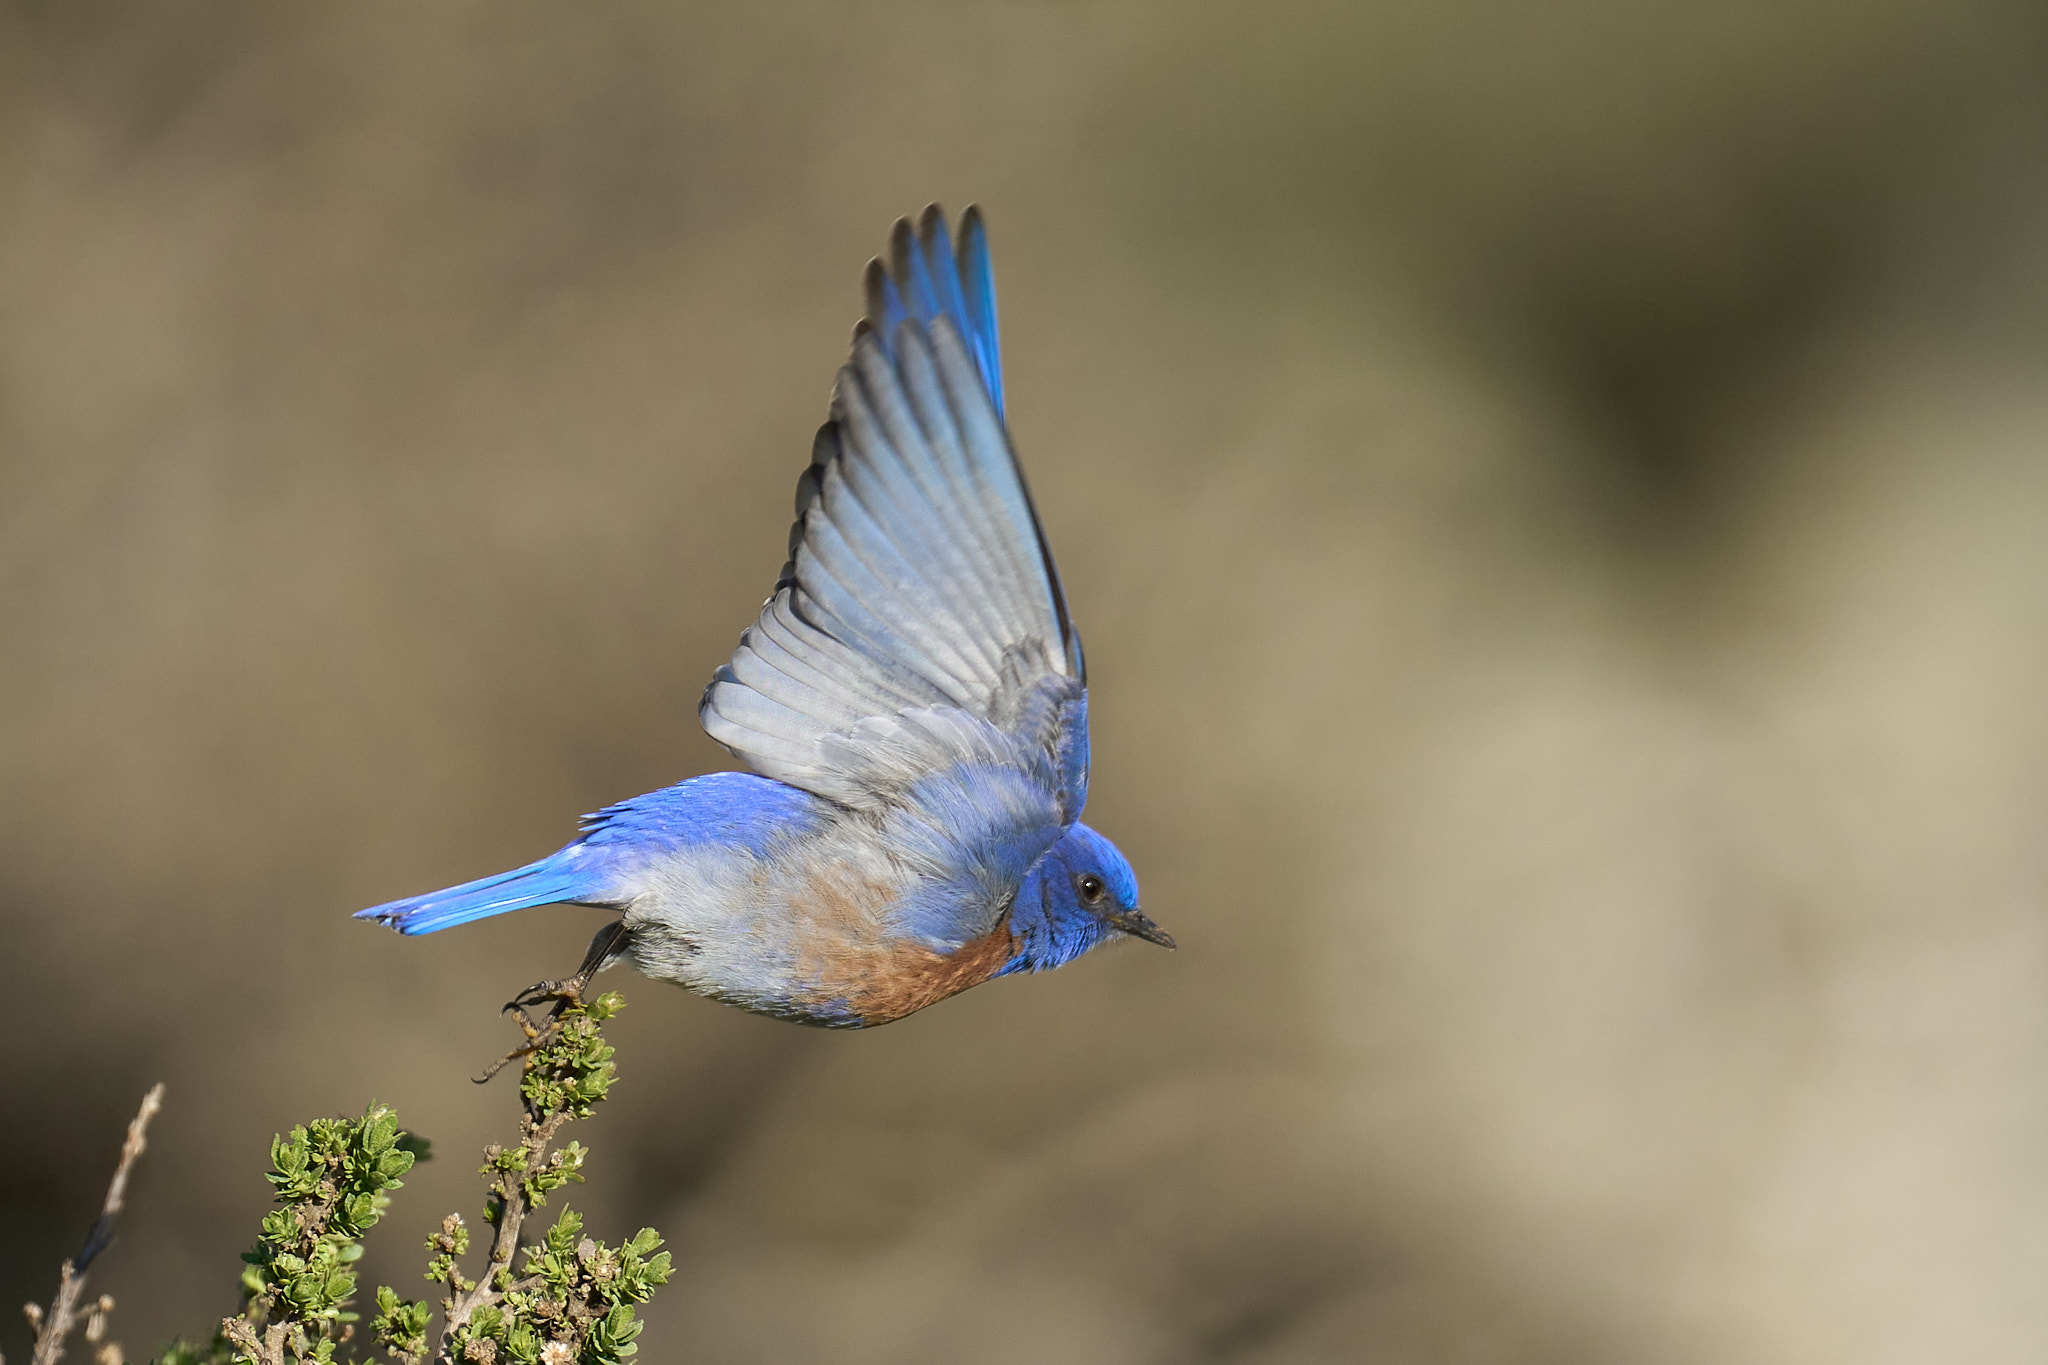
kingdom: Animalia
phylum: Chordata
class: Aves
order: Passeriformes
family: Turdidae
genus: Sialia
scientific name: Sialia mexicana
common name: Western bluebird
